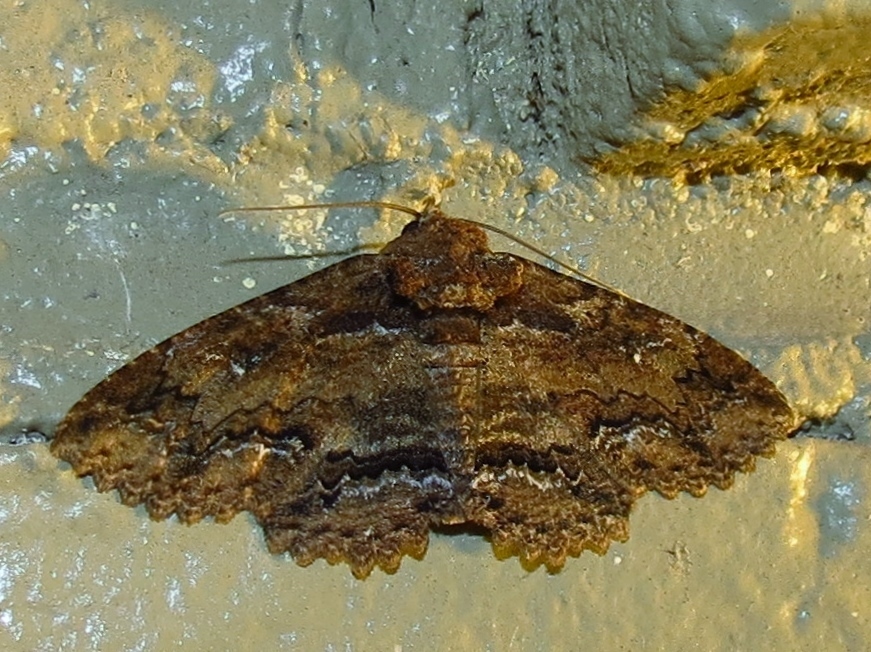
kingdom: Animalia
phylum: Arthropoda
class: Insecta
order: Lepidoptera
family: Erebidae
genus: Zale
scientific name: Zale lunata
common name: Lunate zale moth
